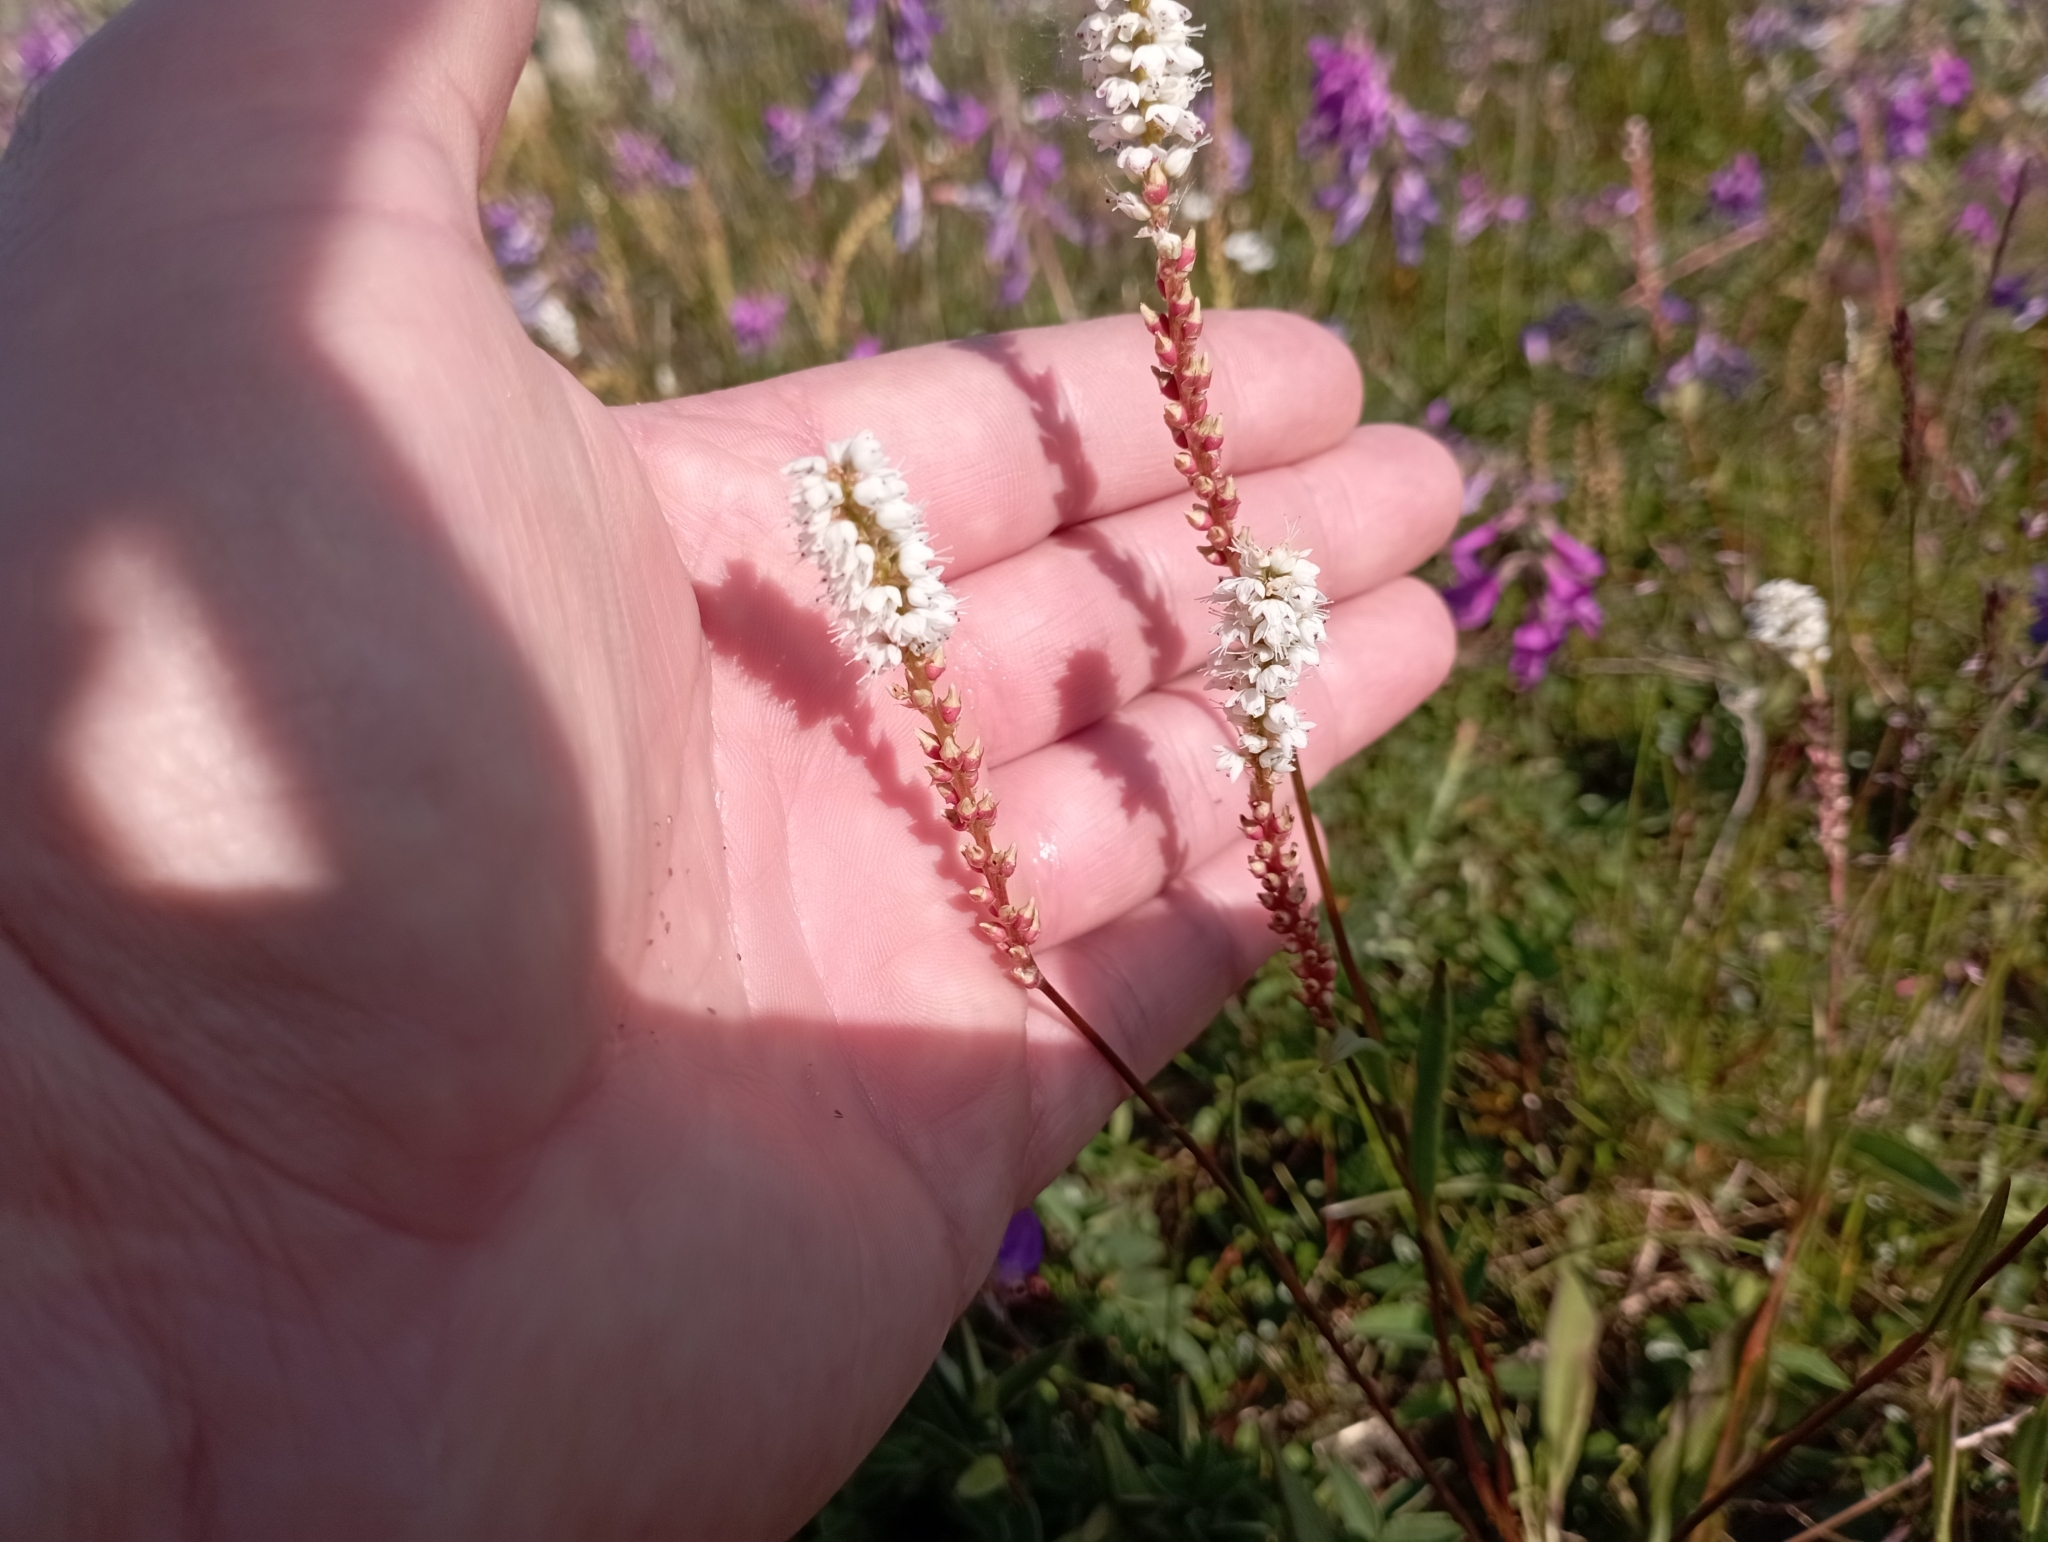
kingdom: Plantae
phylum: Tracheophyta
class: Magnoliopsida
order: Caryophyllales
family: Polygonaceae
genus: Bistorta
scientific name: Bistorta vivipara
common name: Alpine bistort
